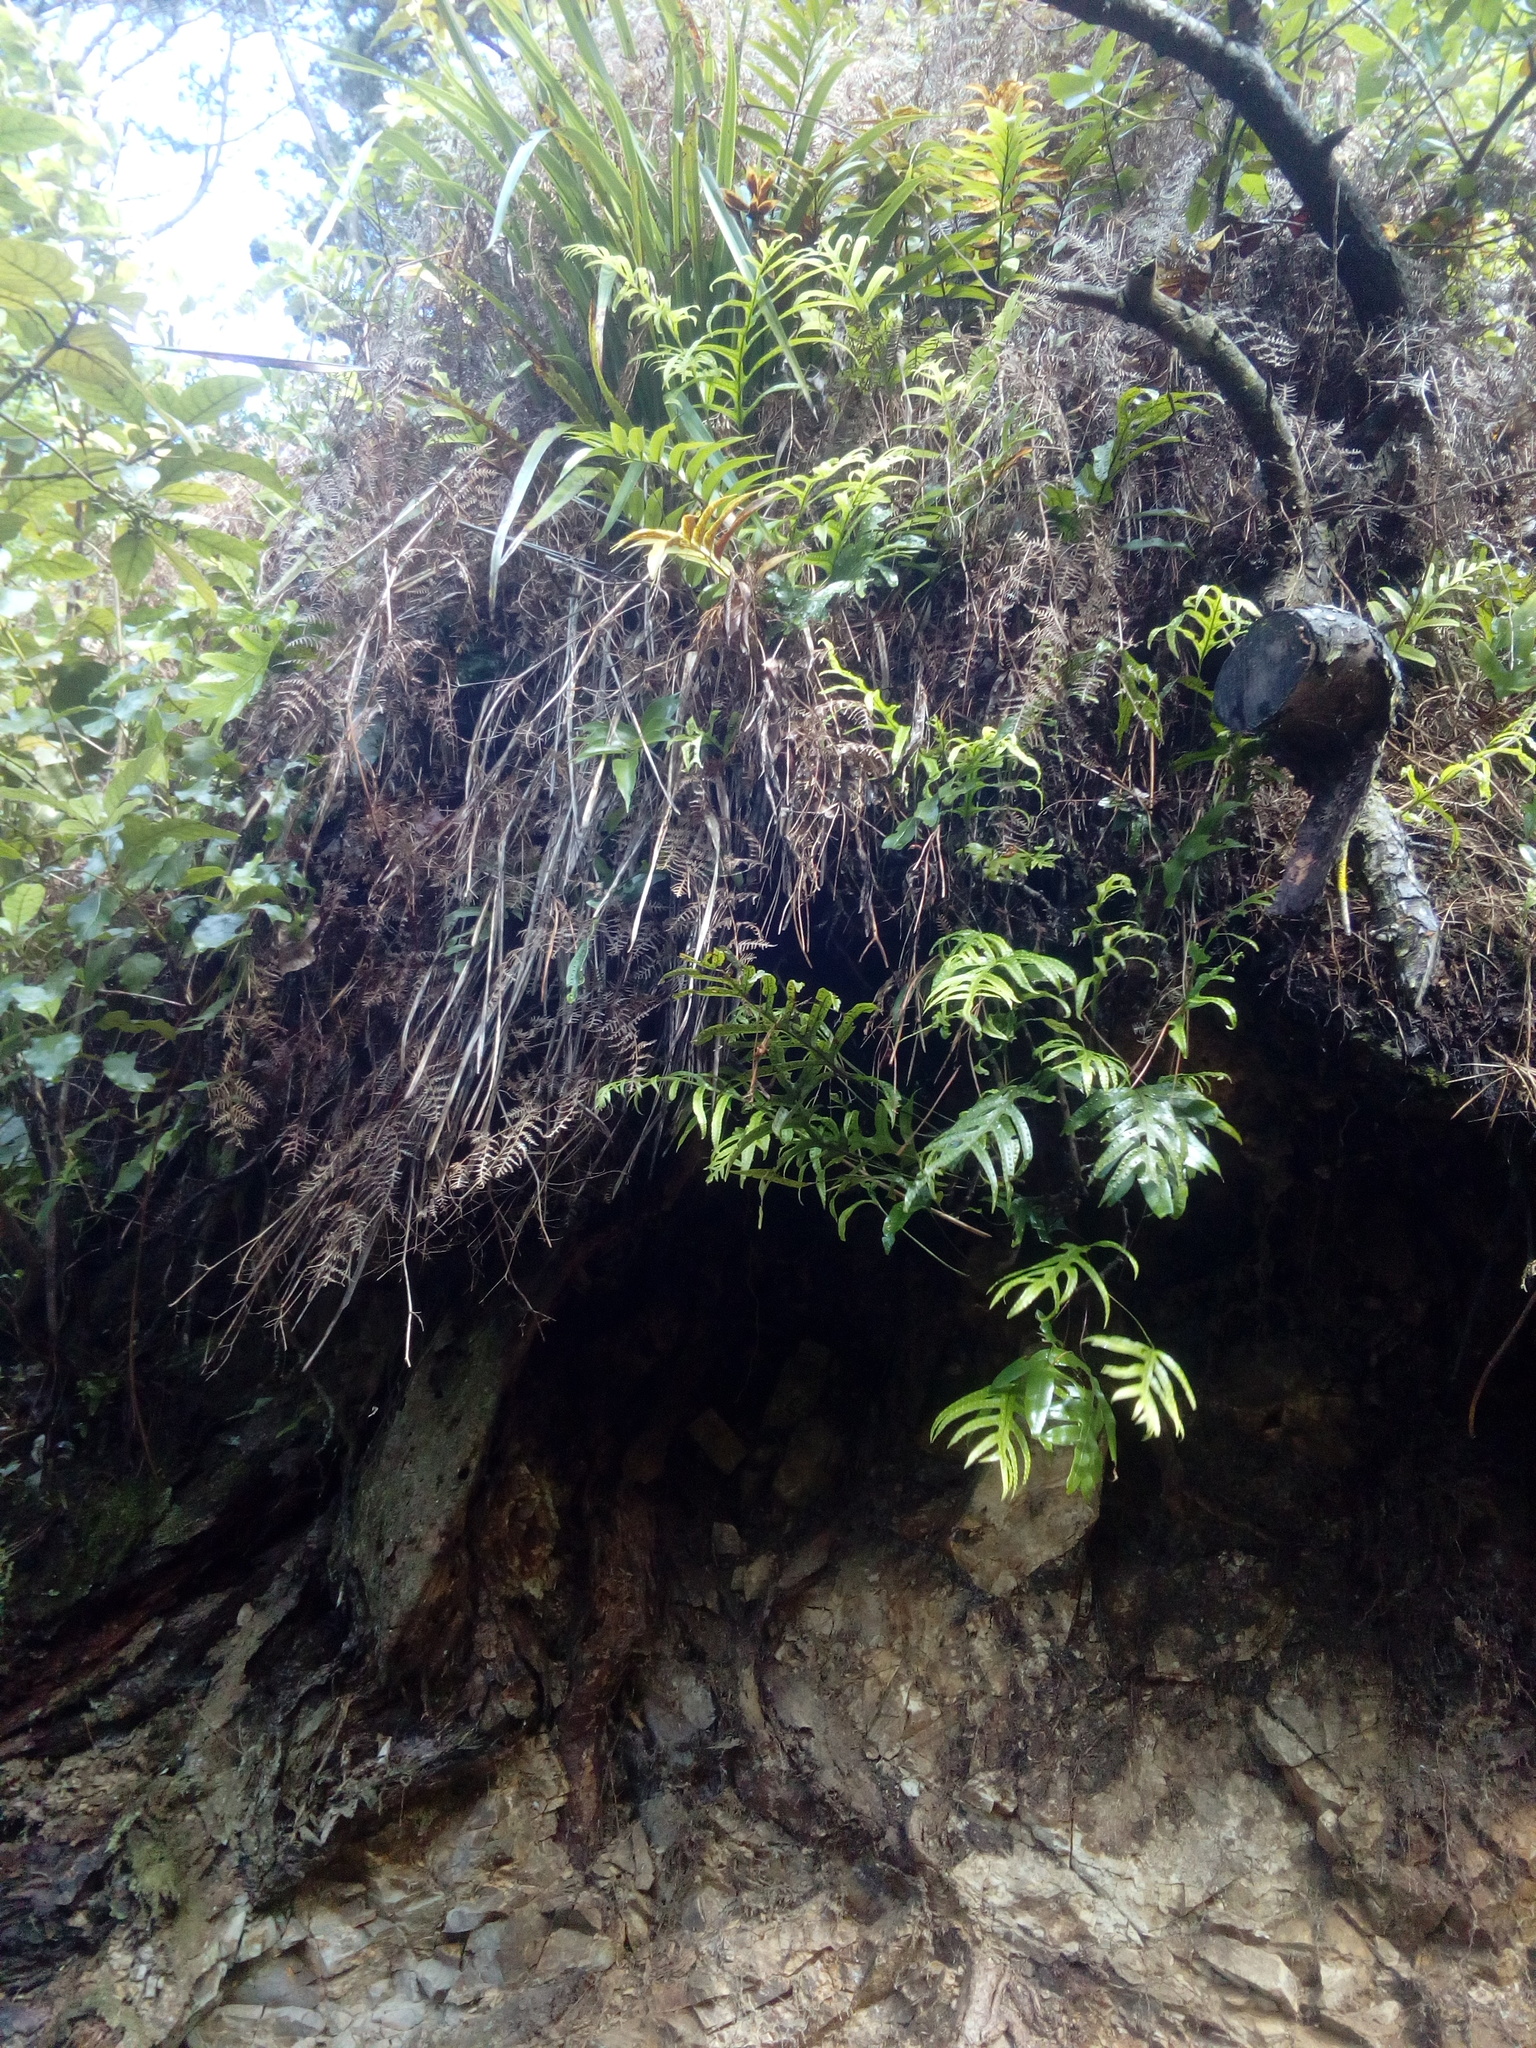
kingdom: Plantae
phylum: Tracheophyta
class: Polypodiopsida
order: Polypodiales
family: Polypodiaceae
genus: Lecanopteris
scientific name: Lecanopteris pustulata
